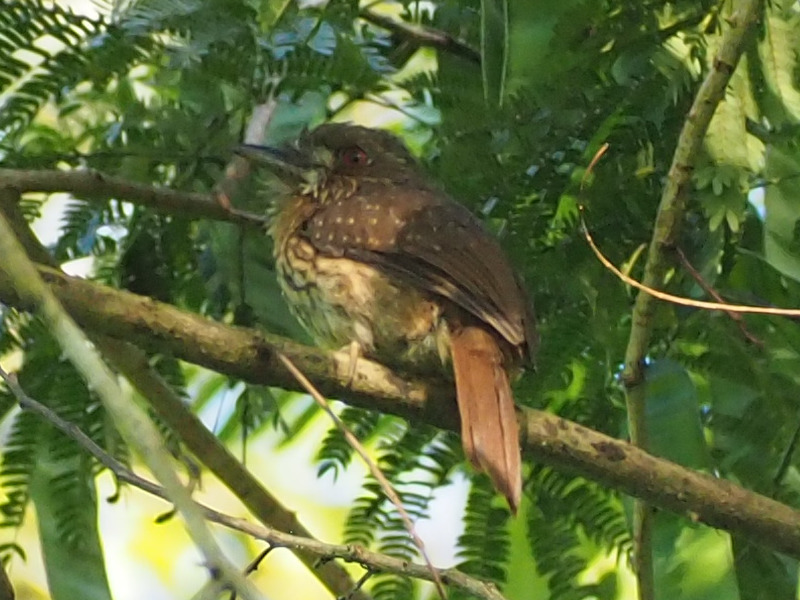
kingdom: Animalia
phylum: Chordata
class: Aves
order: Piciformes
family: Bucconidae
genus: Malacoptila
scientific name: Malacoptila panamensis
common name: White-whiskered puffbird
